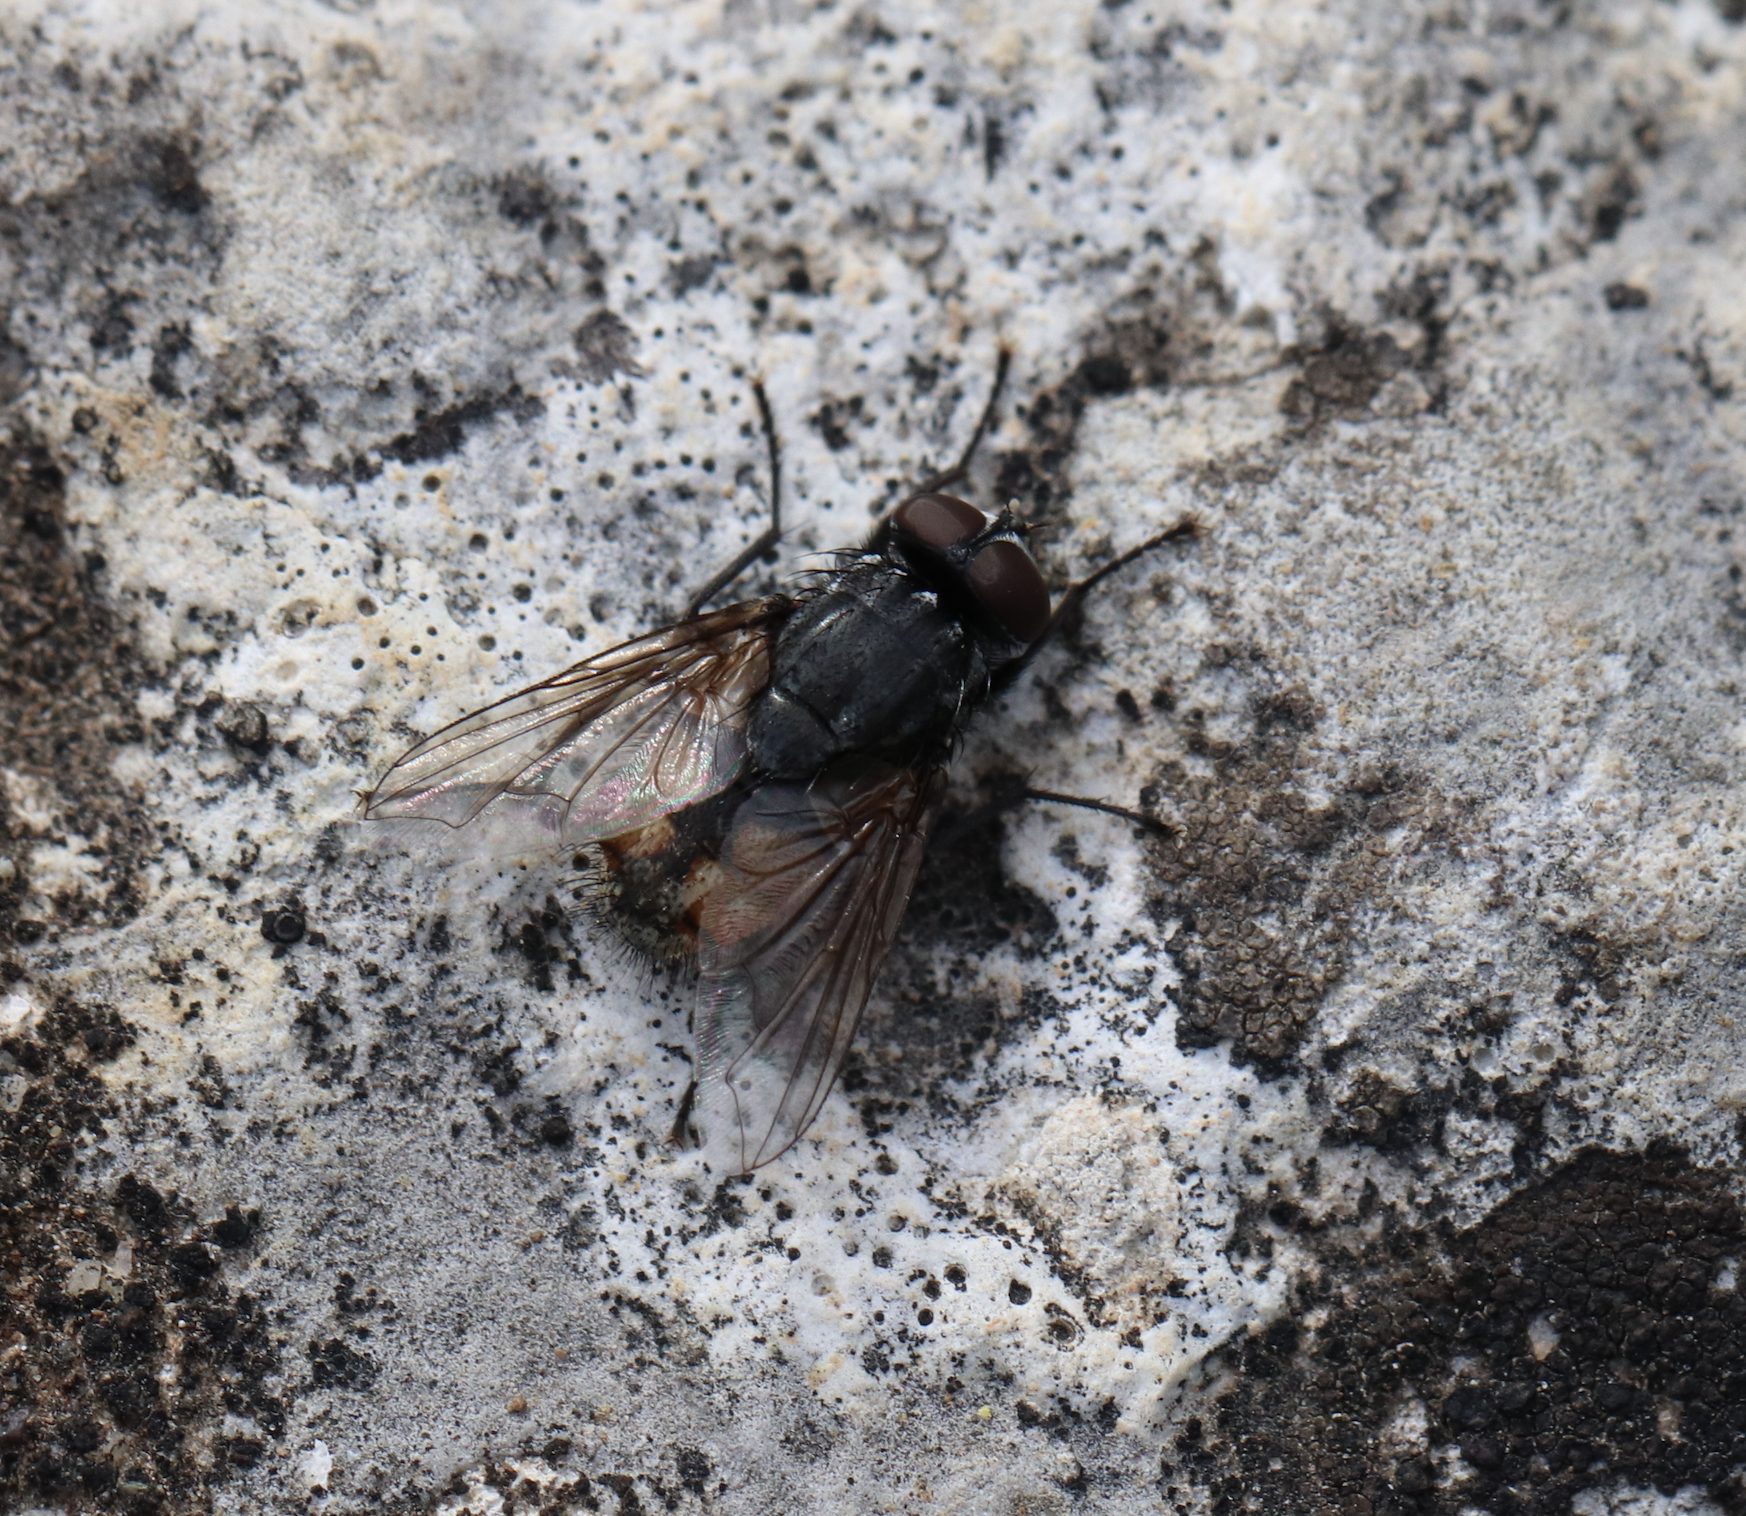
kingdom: Animalia
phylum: Arthropoda
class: Insecta
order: Diptera
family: Muscidae
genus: Musca
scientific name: Musca autumnalis
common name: Face fly
